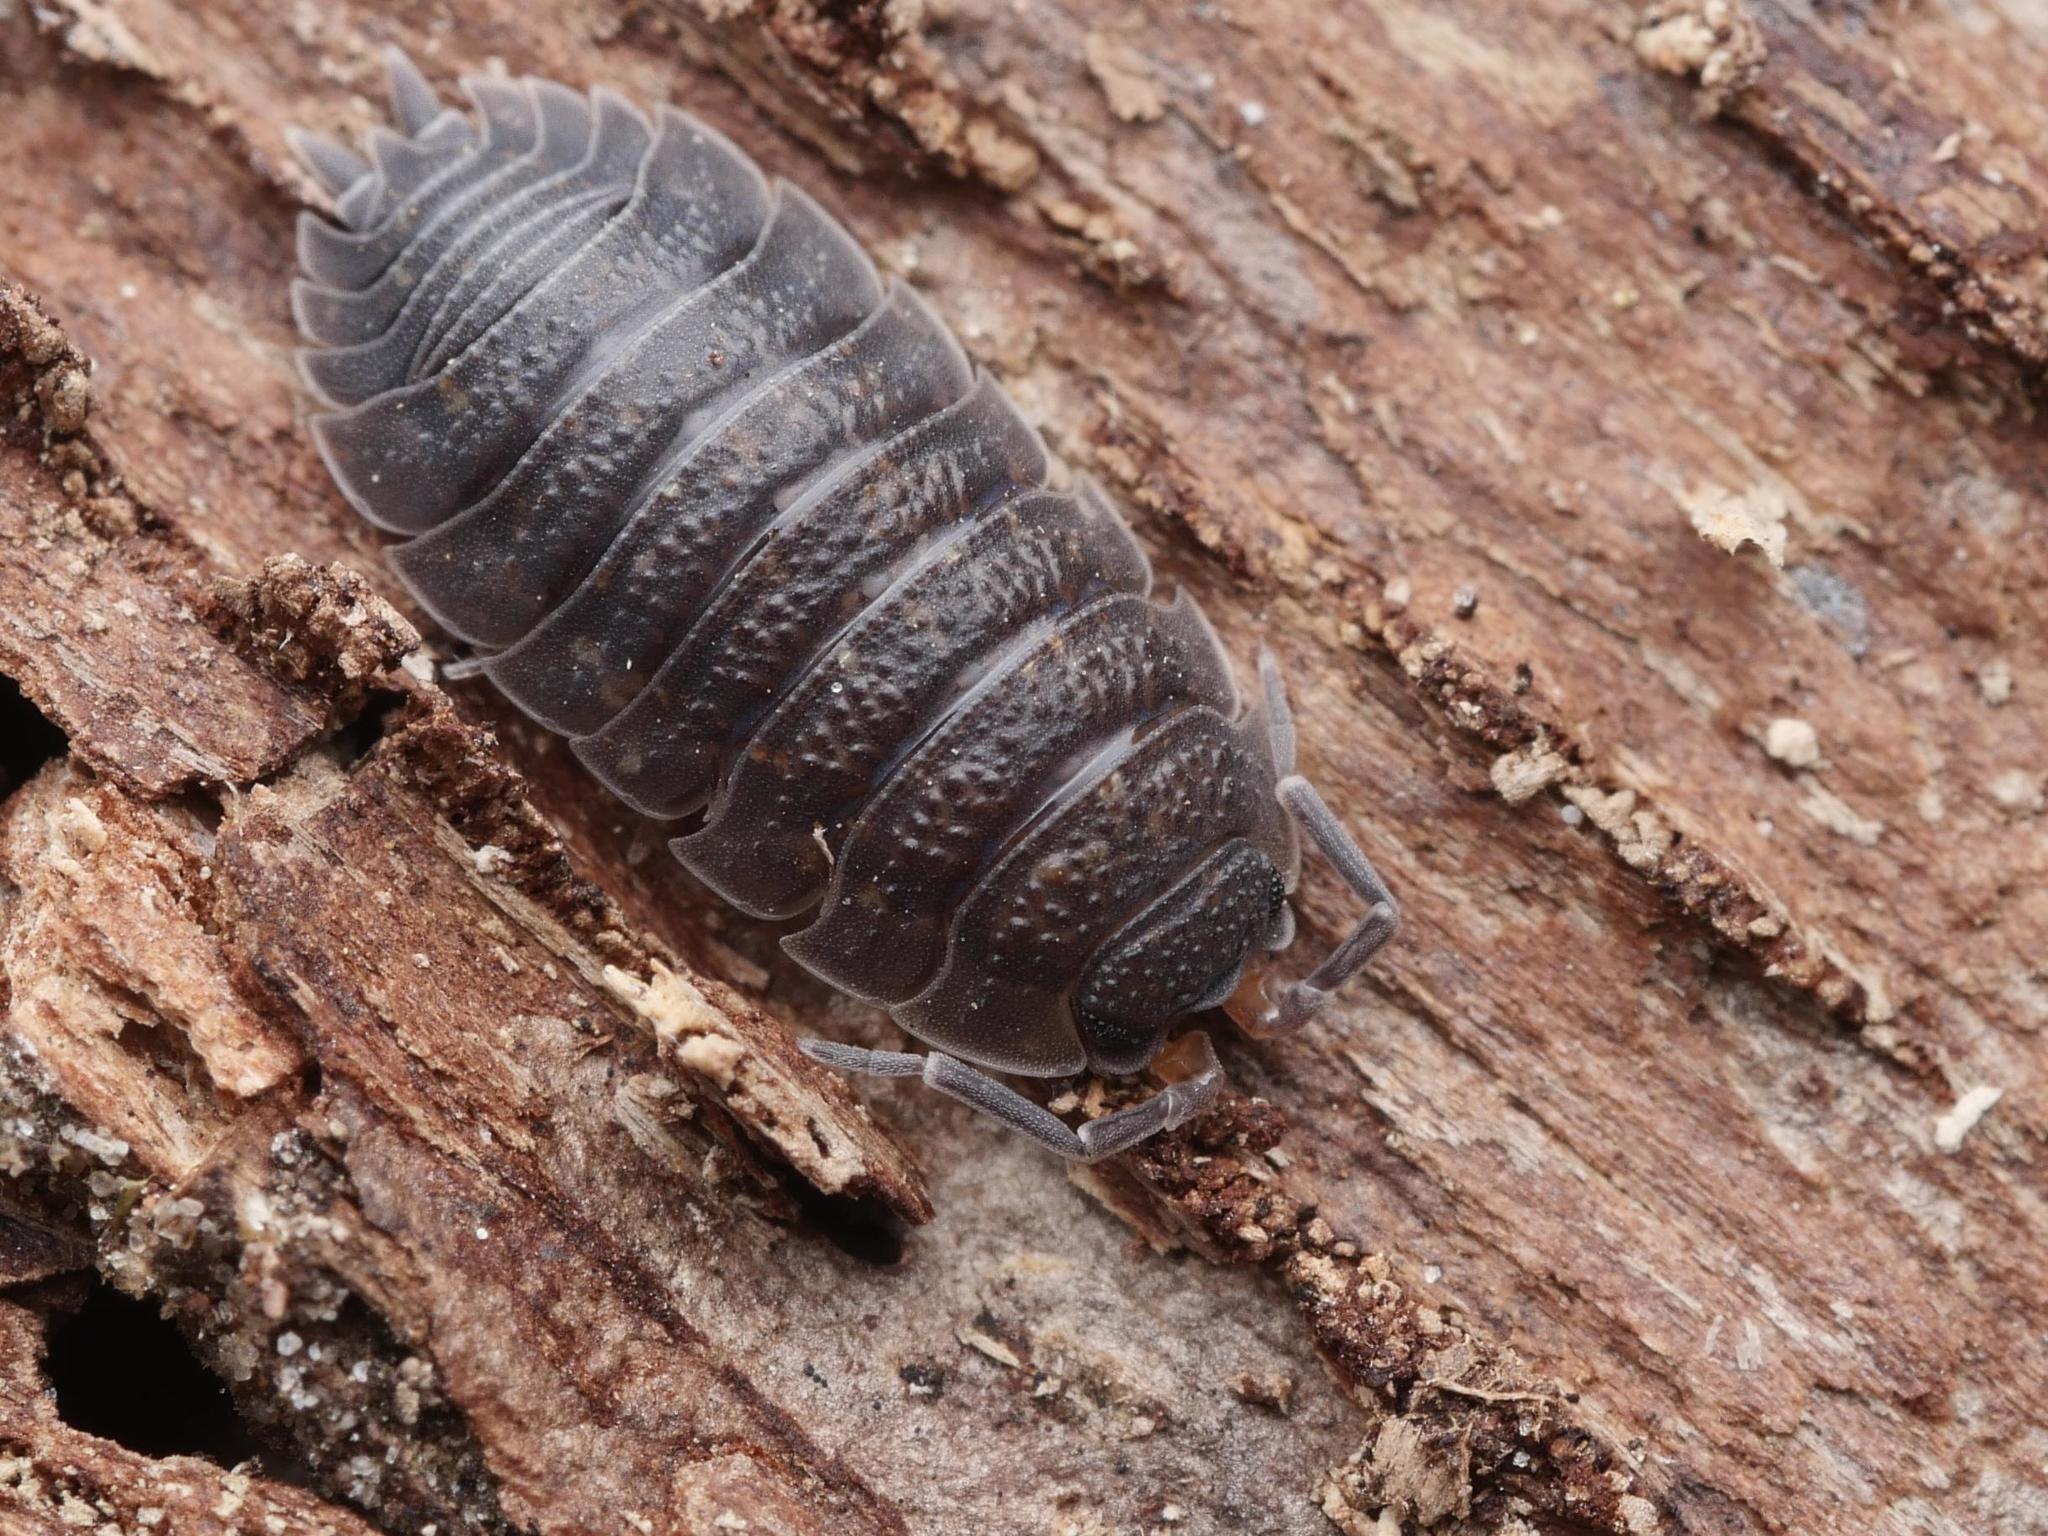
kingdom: Animalia
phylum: Arthropoda
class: Malacostraca
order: Isopoda
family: Porcellionidae
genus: Porcellio
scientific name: Porcellio scaber
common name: Common rough woodlouse
